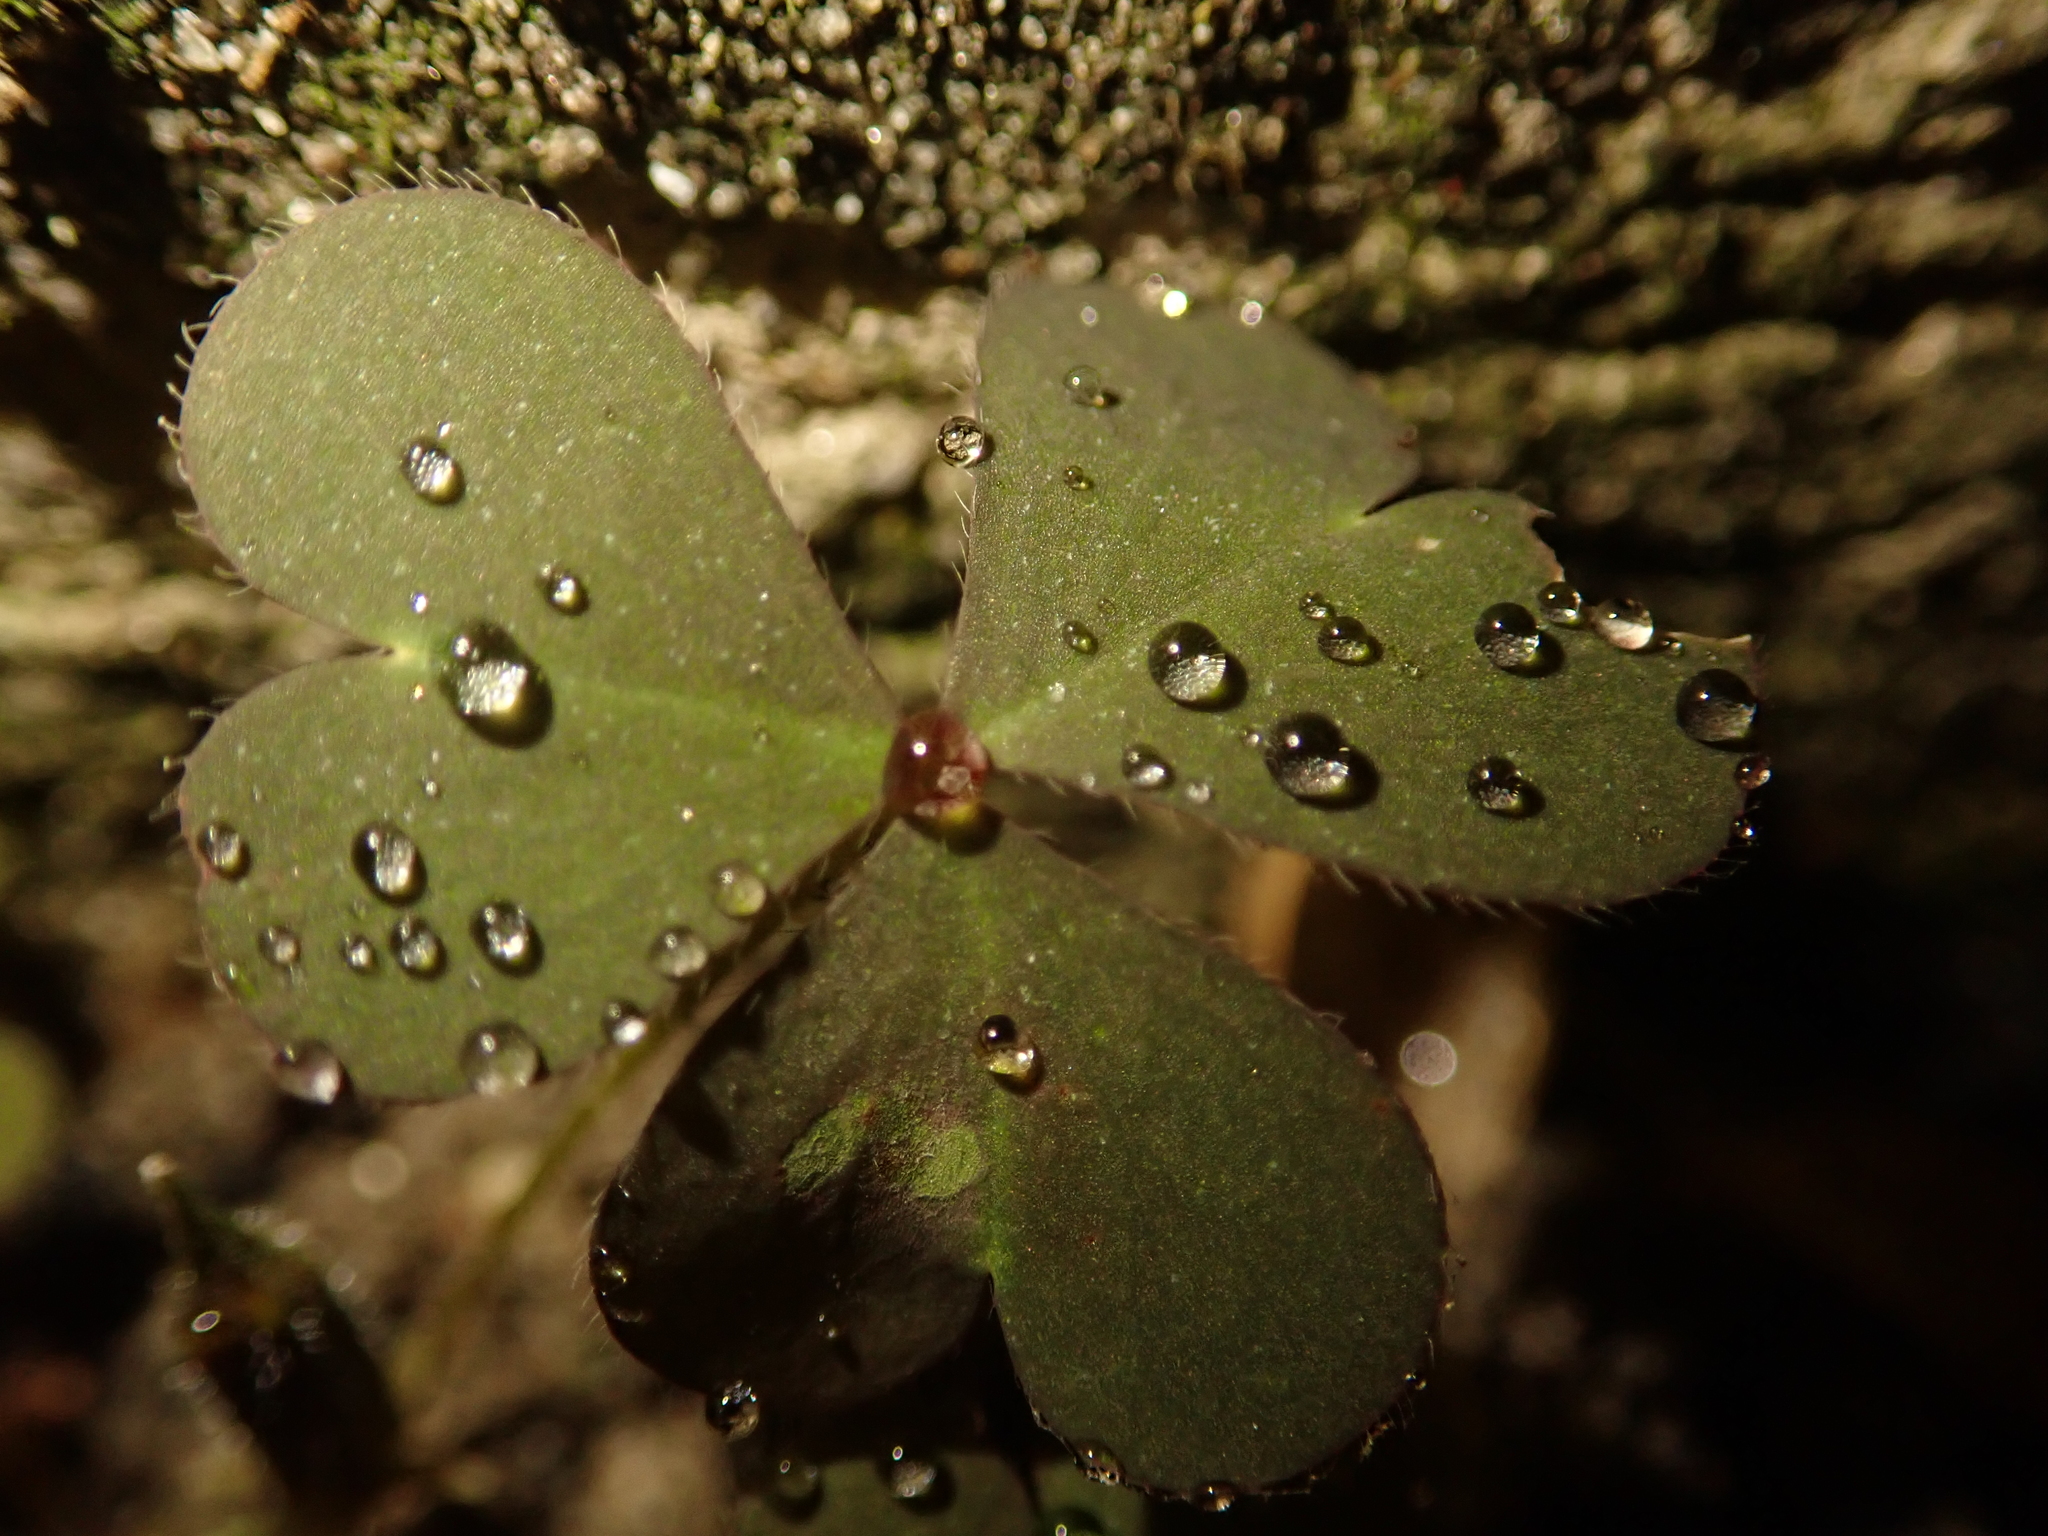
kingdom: Plantae
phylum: Tracheophyta
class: Magnoliopsida
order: Oxalidales
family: Oxalidaceae
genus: Oxalis
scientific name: Oxalis corniculata
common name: Procumbent yellow-sorrel
